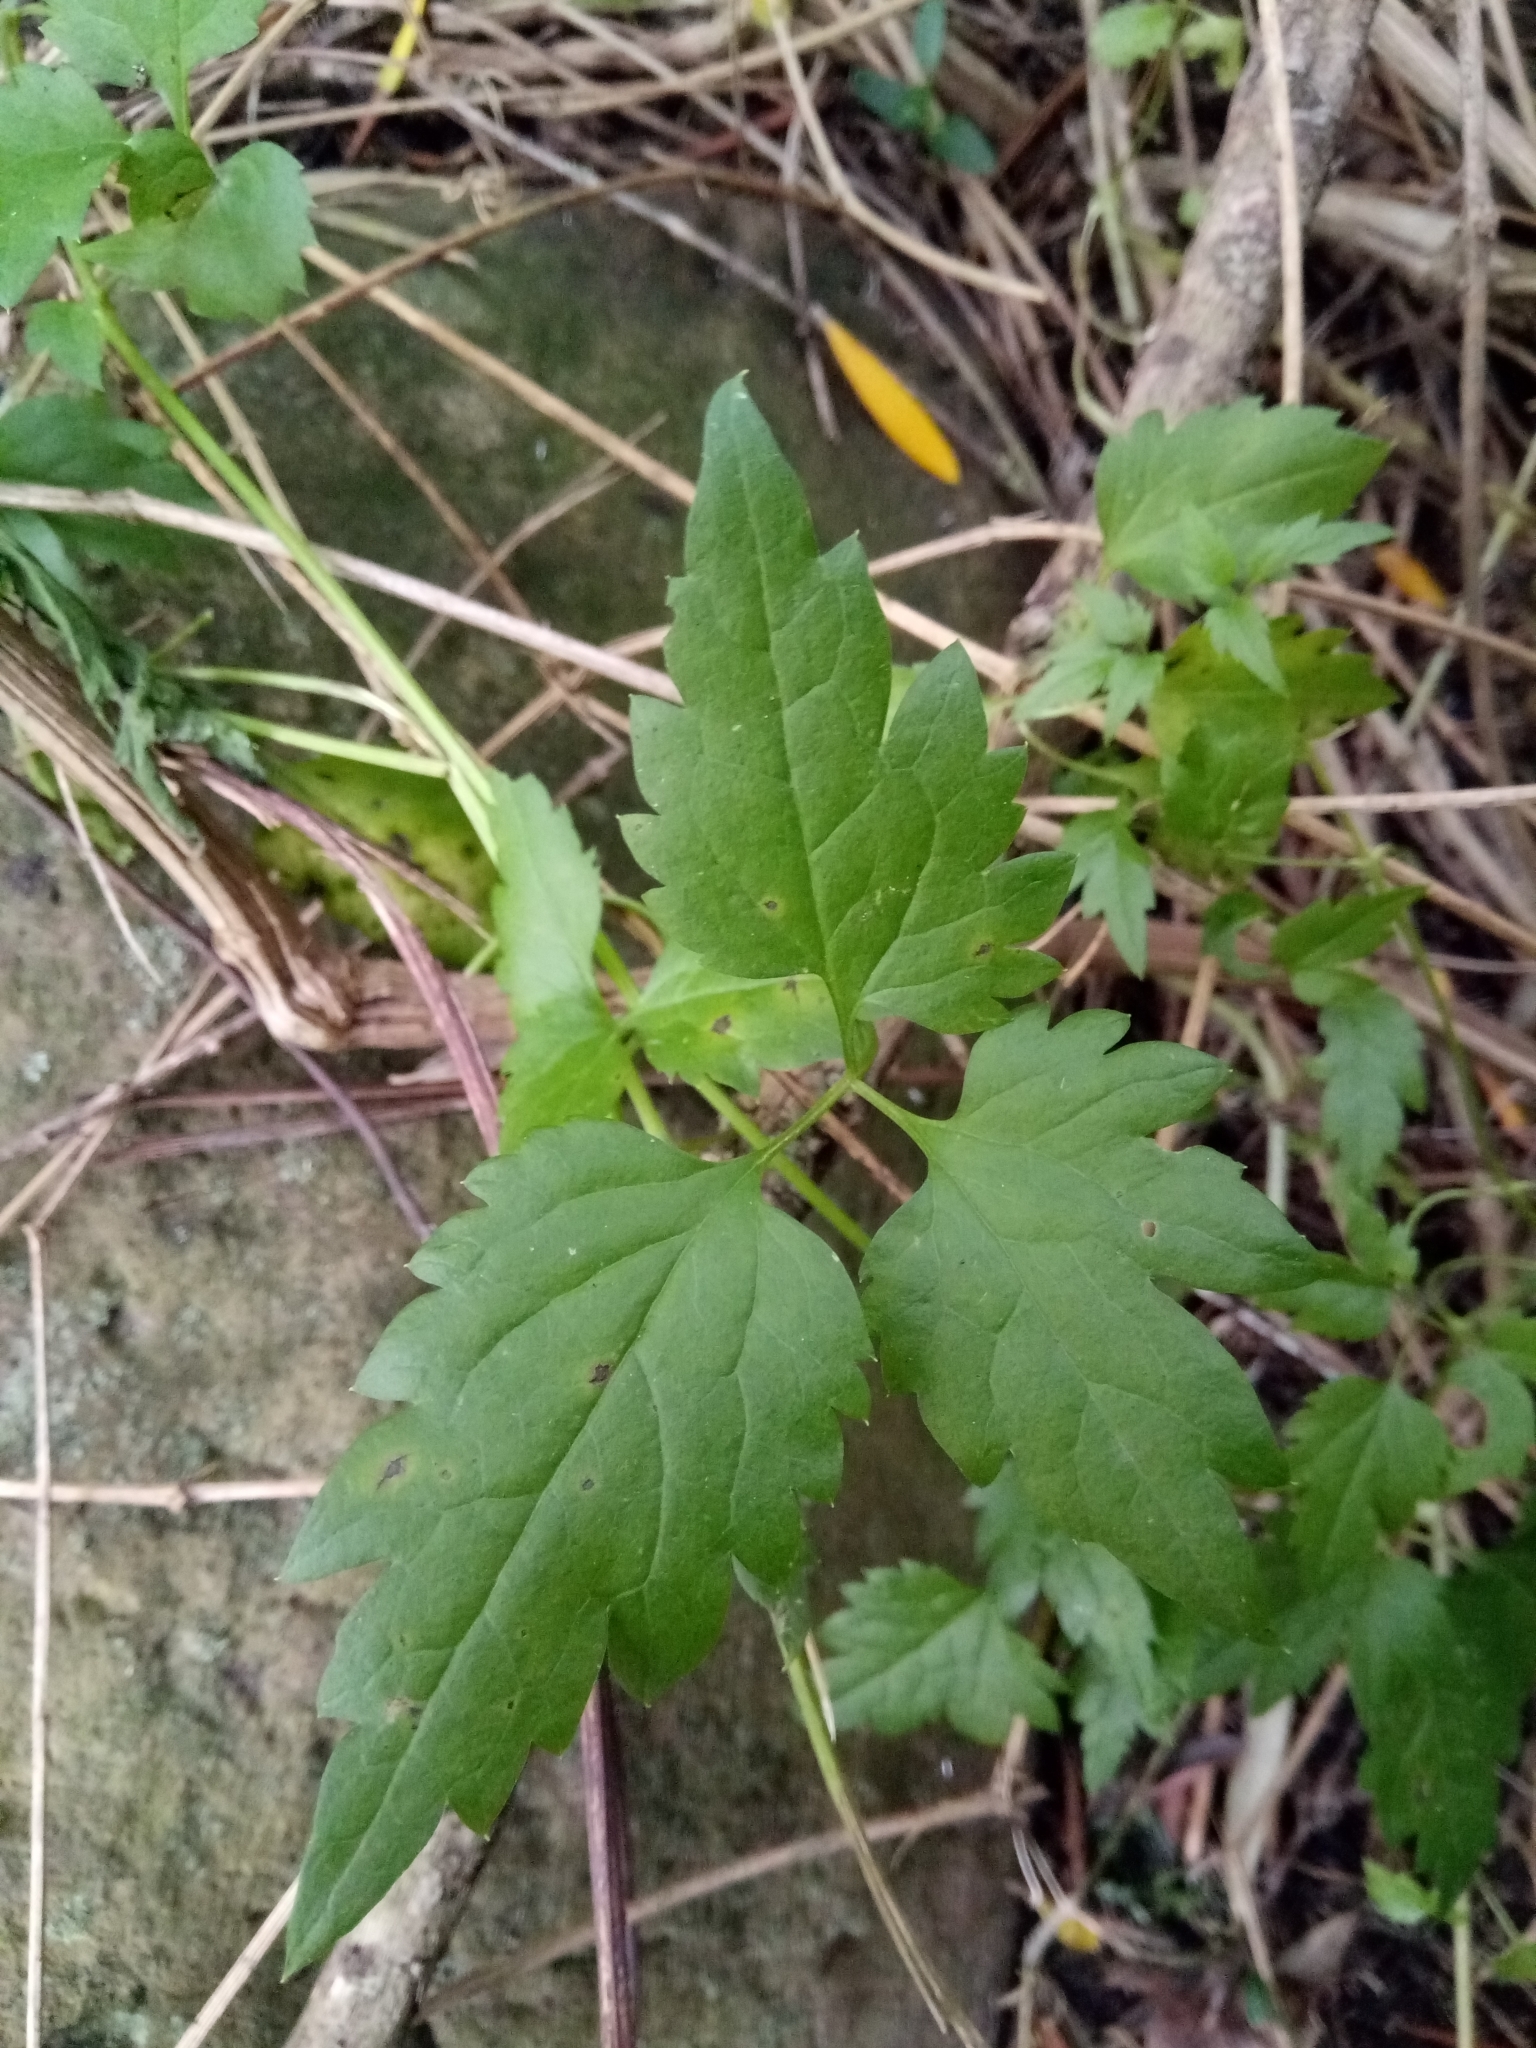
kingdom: Plantae
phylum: Tracheophyta
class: Magnoliopsida
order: Ranunculales
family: Ranunculaceae
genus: Clematis
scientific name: Clematis cirrhosa
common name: Early virgin's-bower
